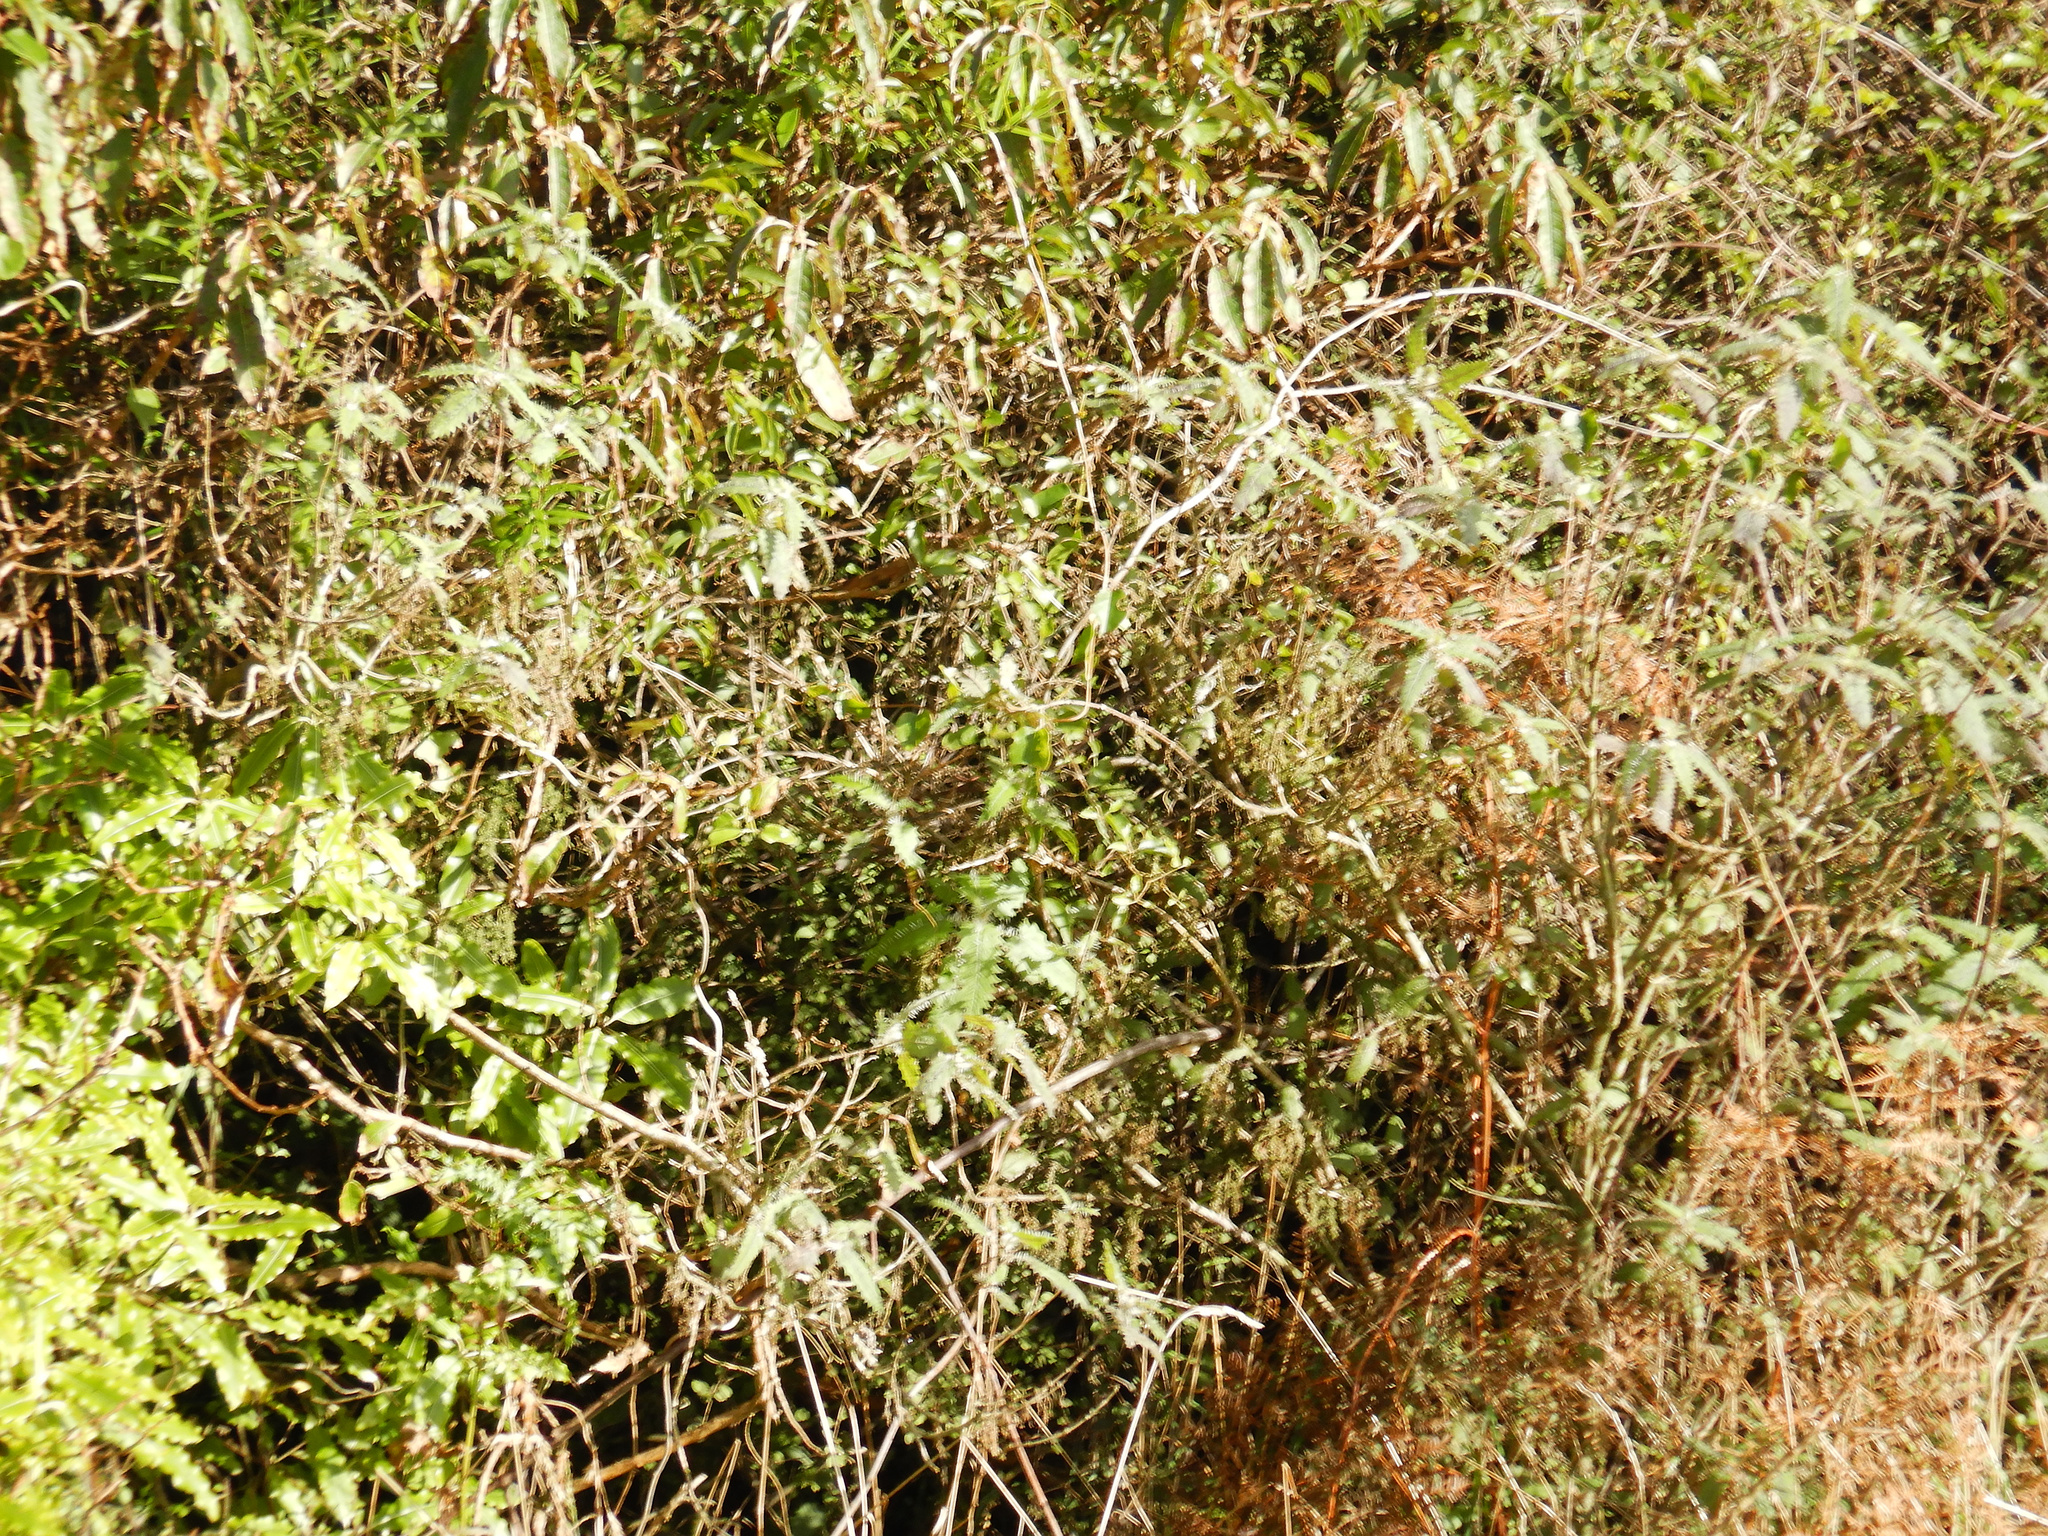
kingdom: Plantae
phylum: Tracheophyta
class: Magnoliopsida
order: Rosales
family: Urticaceae
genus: Urtica
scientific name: Urtica ferox
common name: Tree nettle
